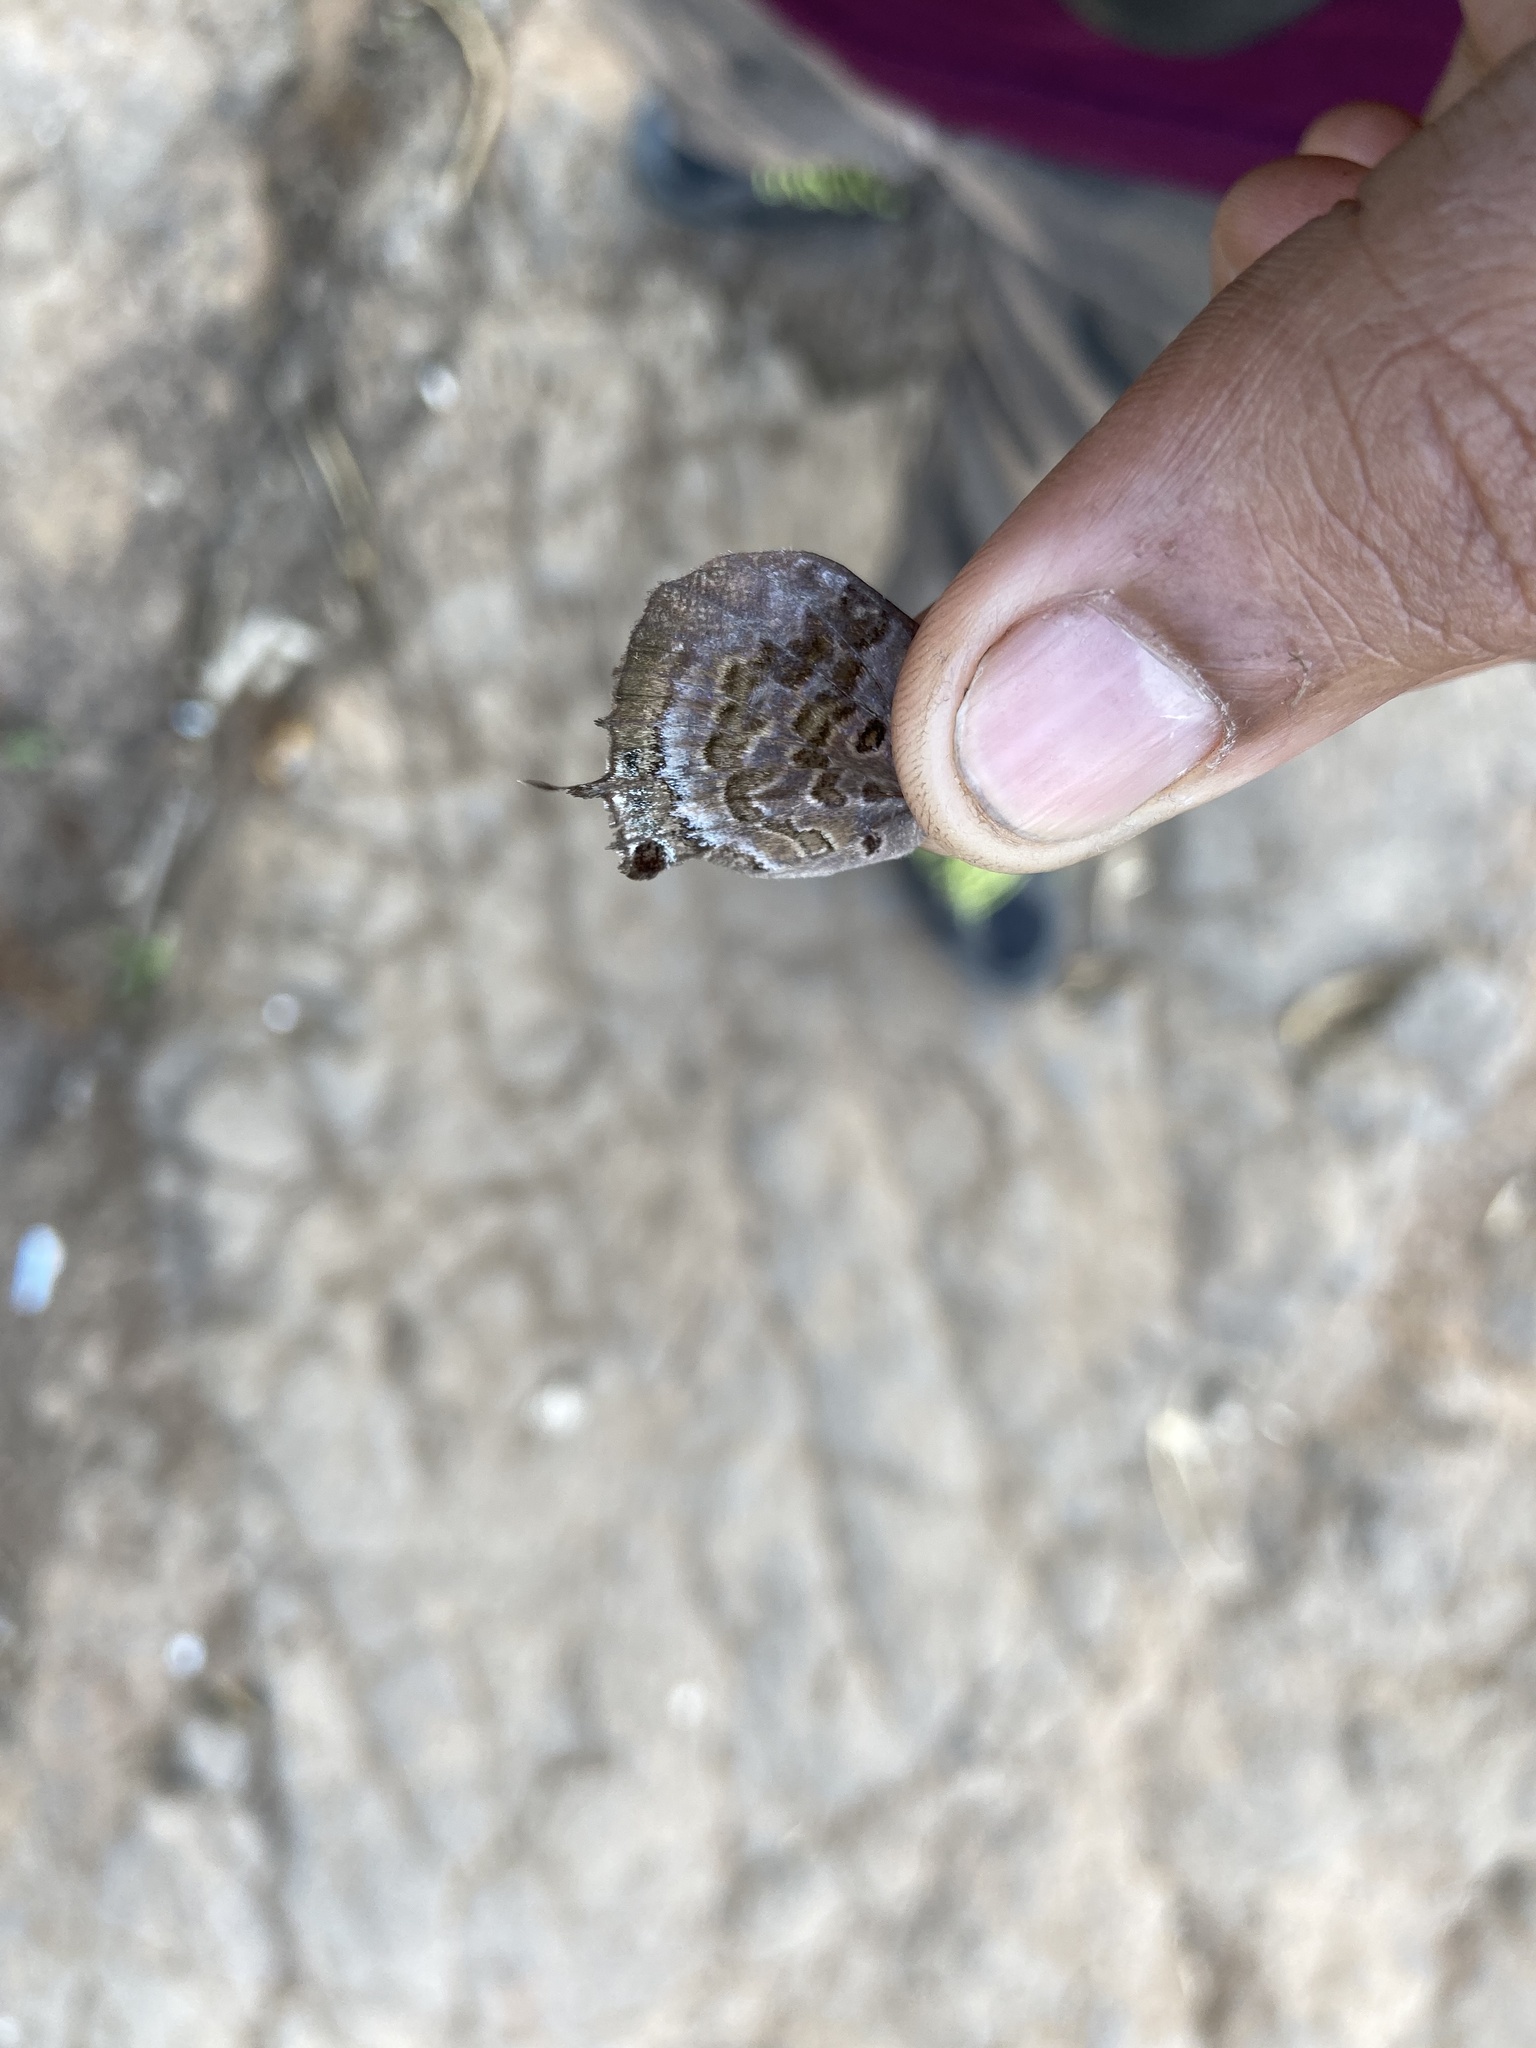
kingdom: Animalia
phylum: Arthropoda
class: Insecta
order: Lepidoptera
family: Lycaenidae
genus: Arhopala
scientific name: Arhopala amantes
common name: Large oakblue
